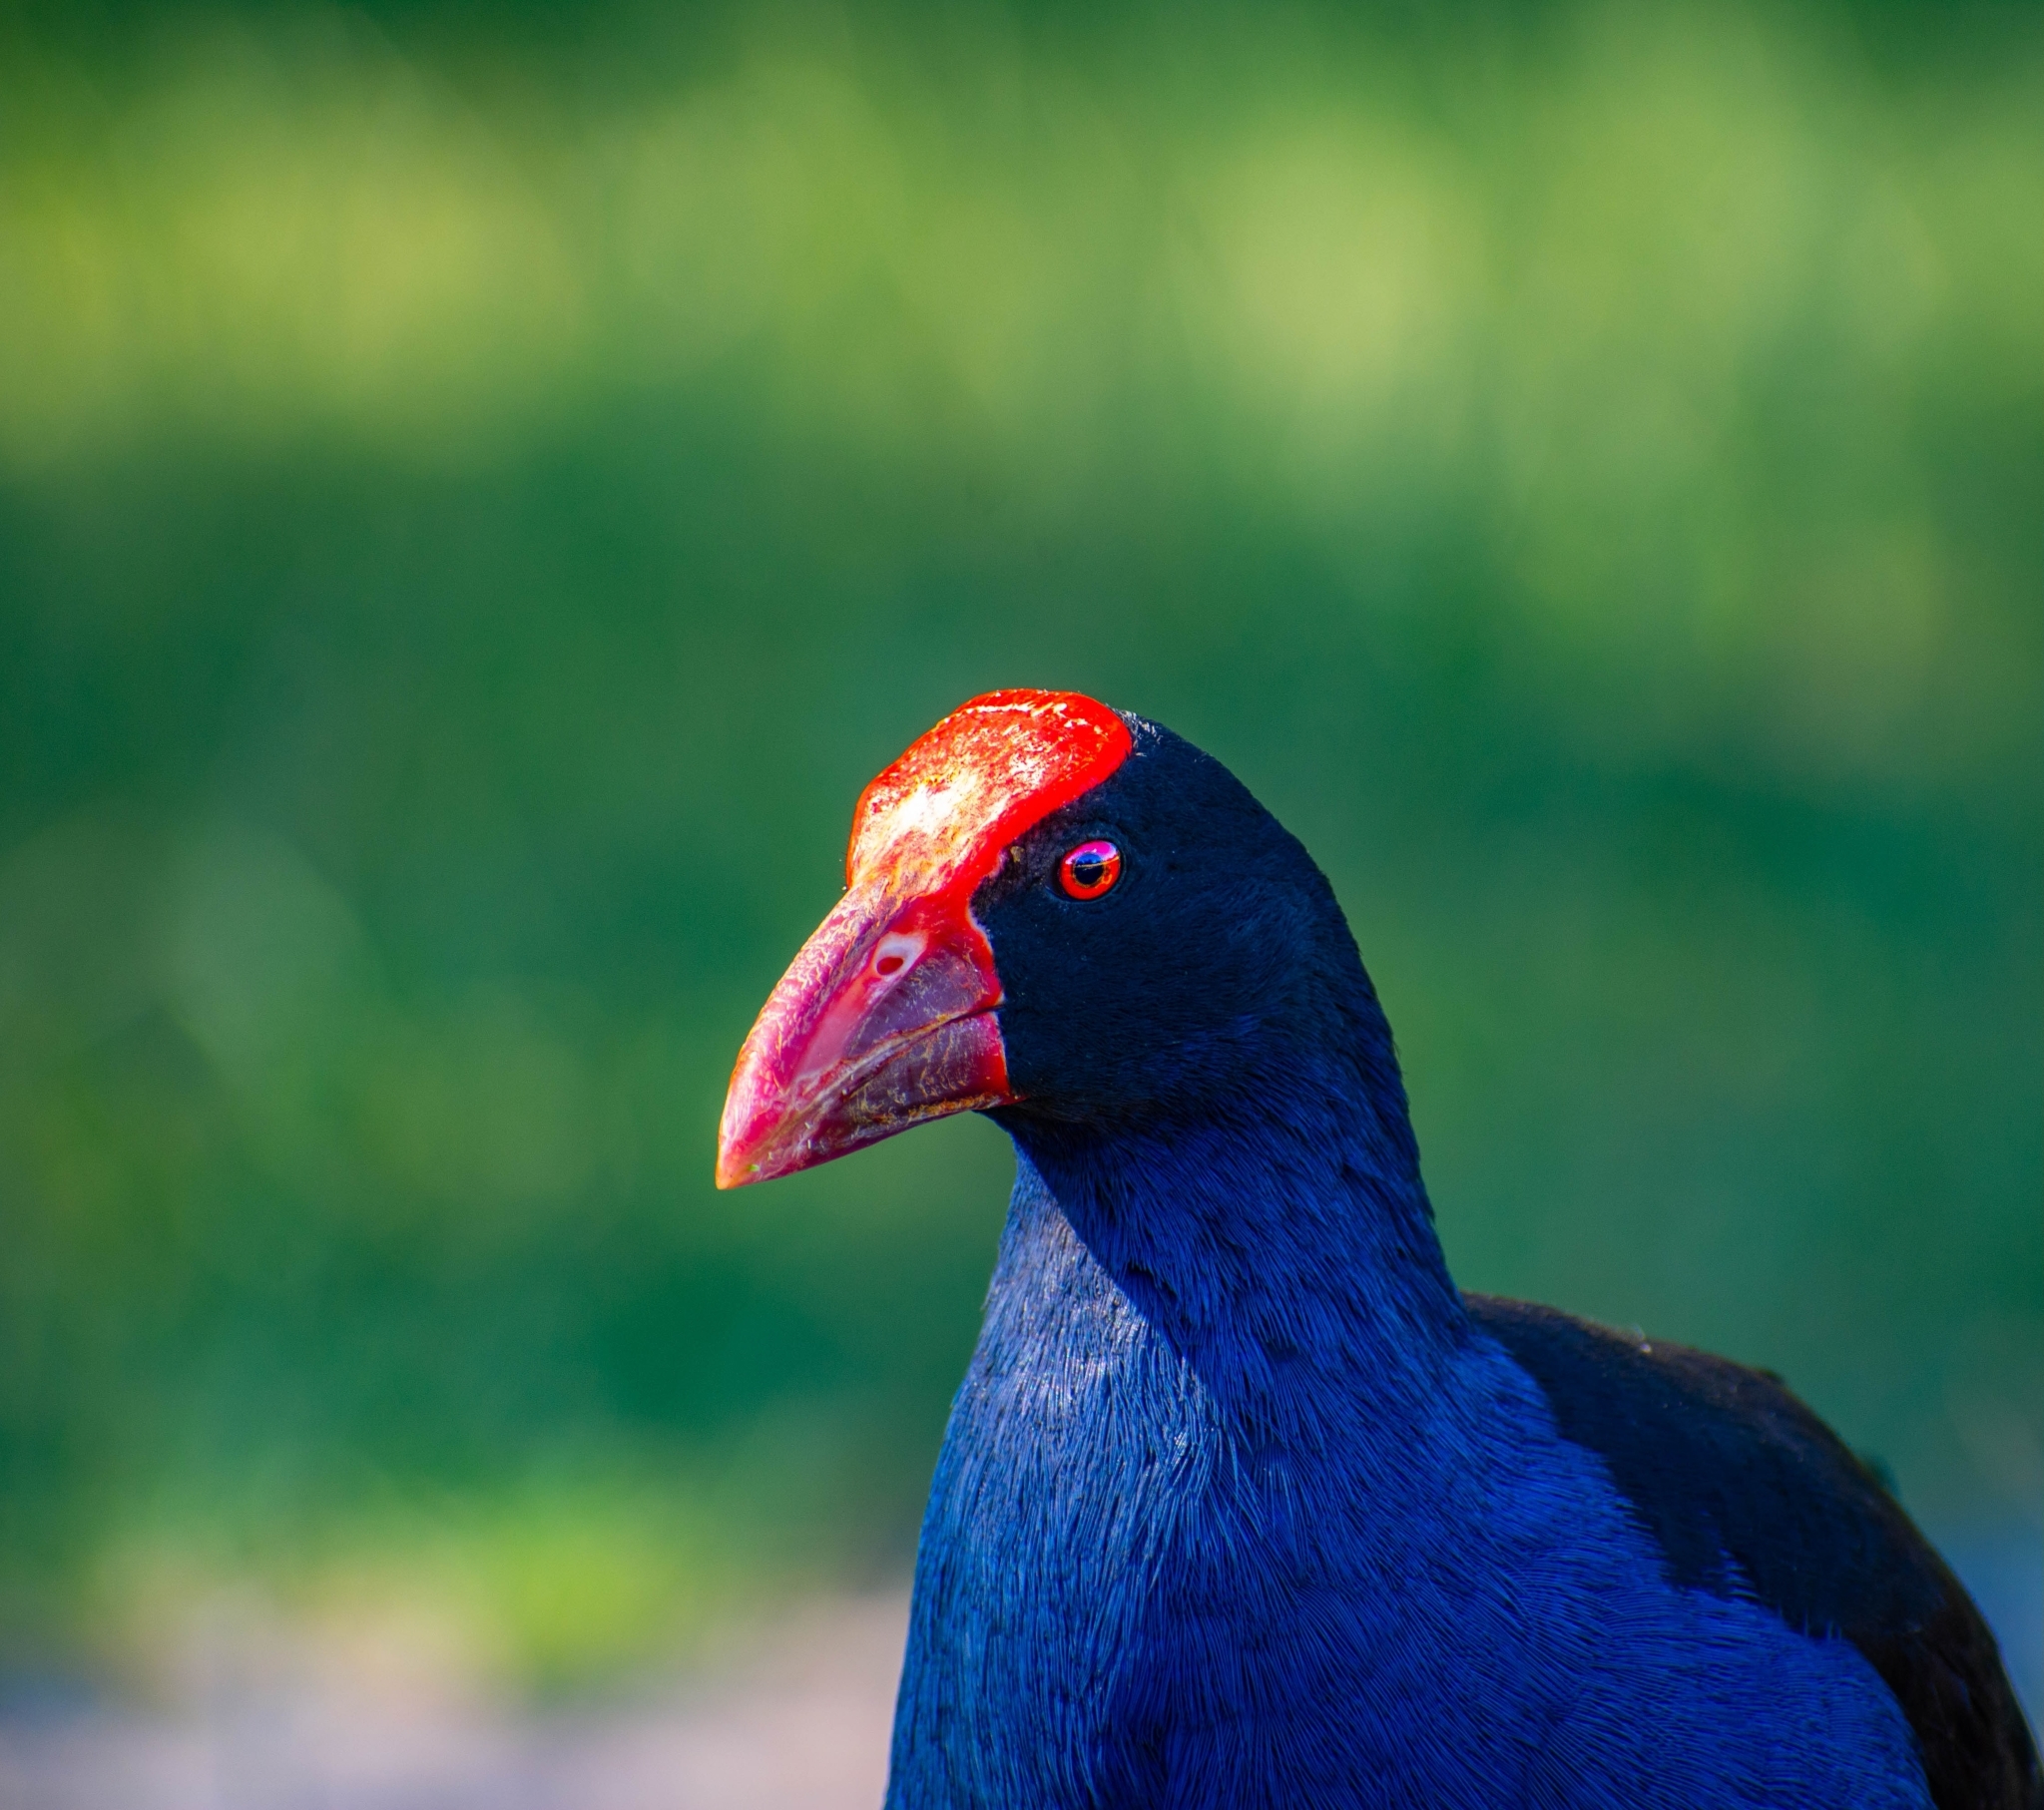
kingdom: Animalia
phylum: Chordata
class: Aves
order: Gruiformes
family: Rallidae
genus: Porphyrio
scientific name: Porphyrio melanotus
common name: Australasian swamphen
